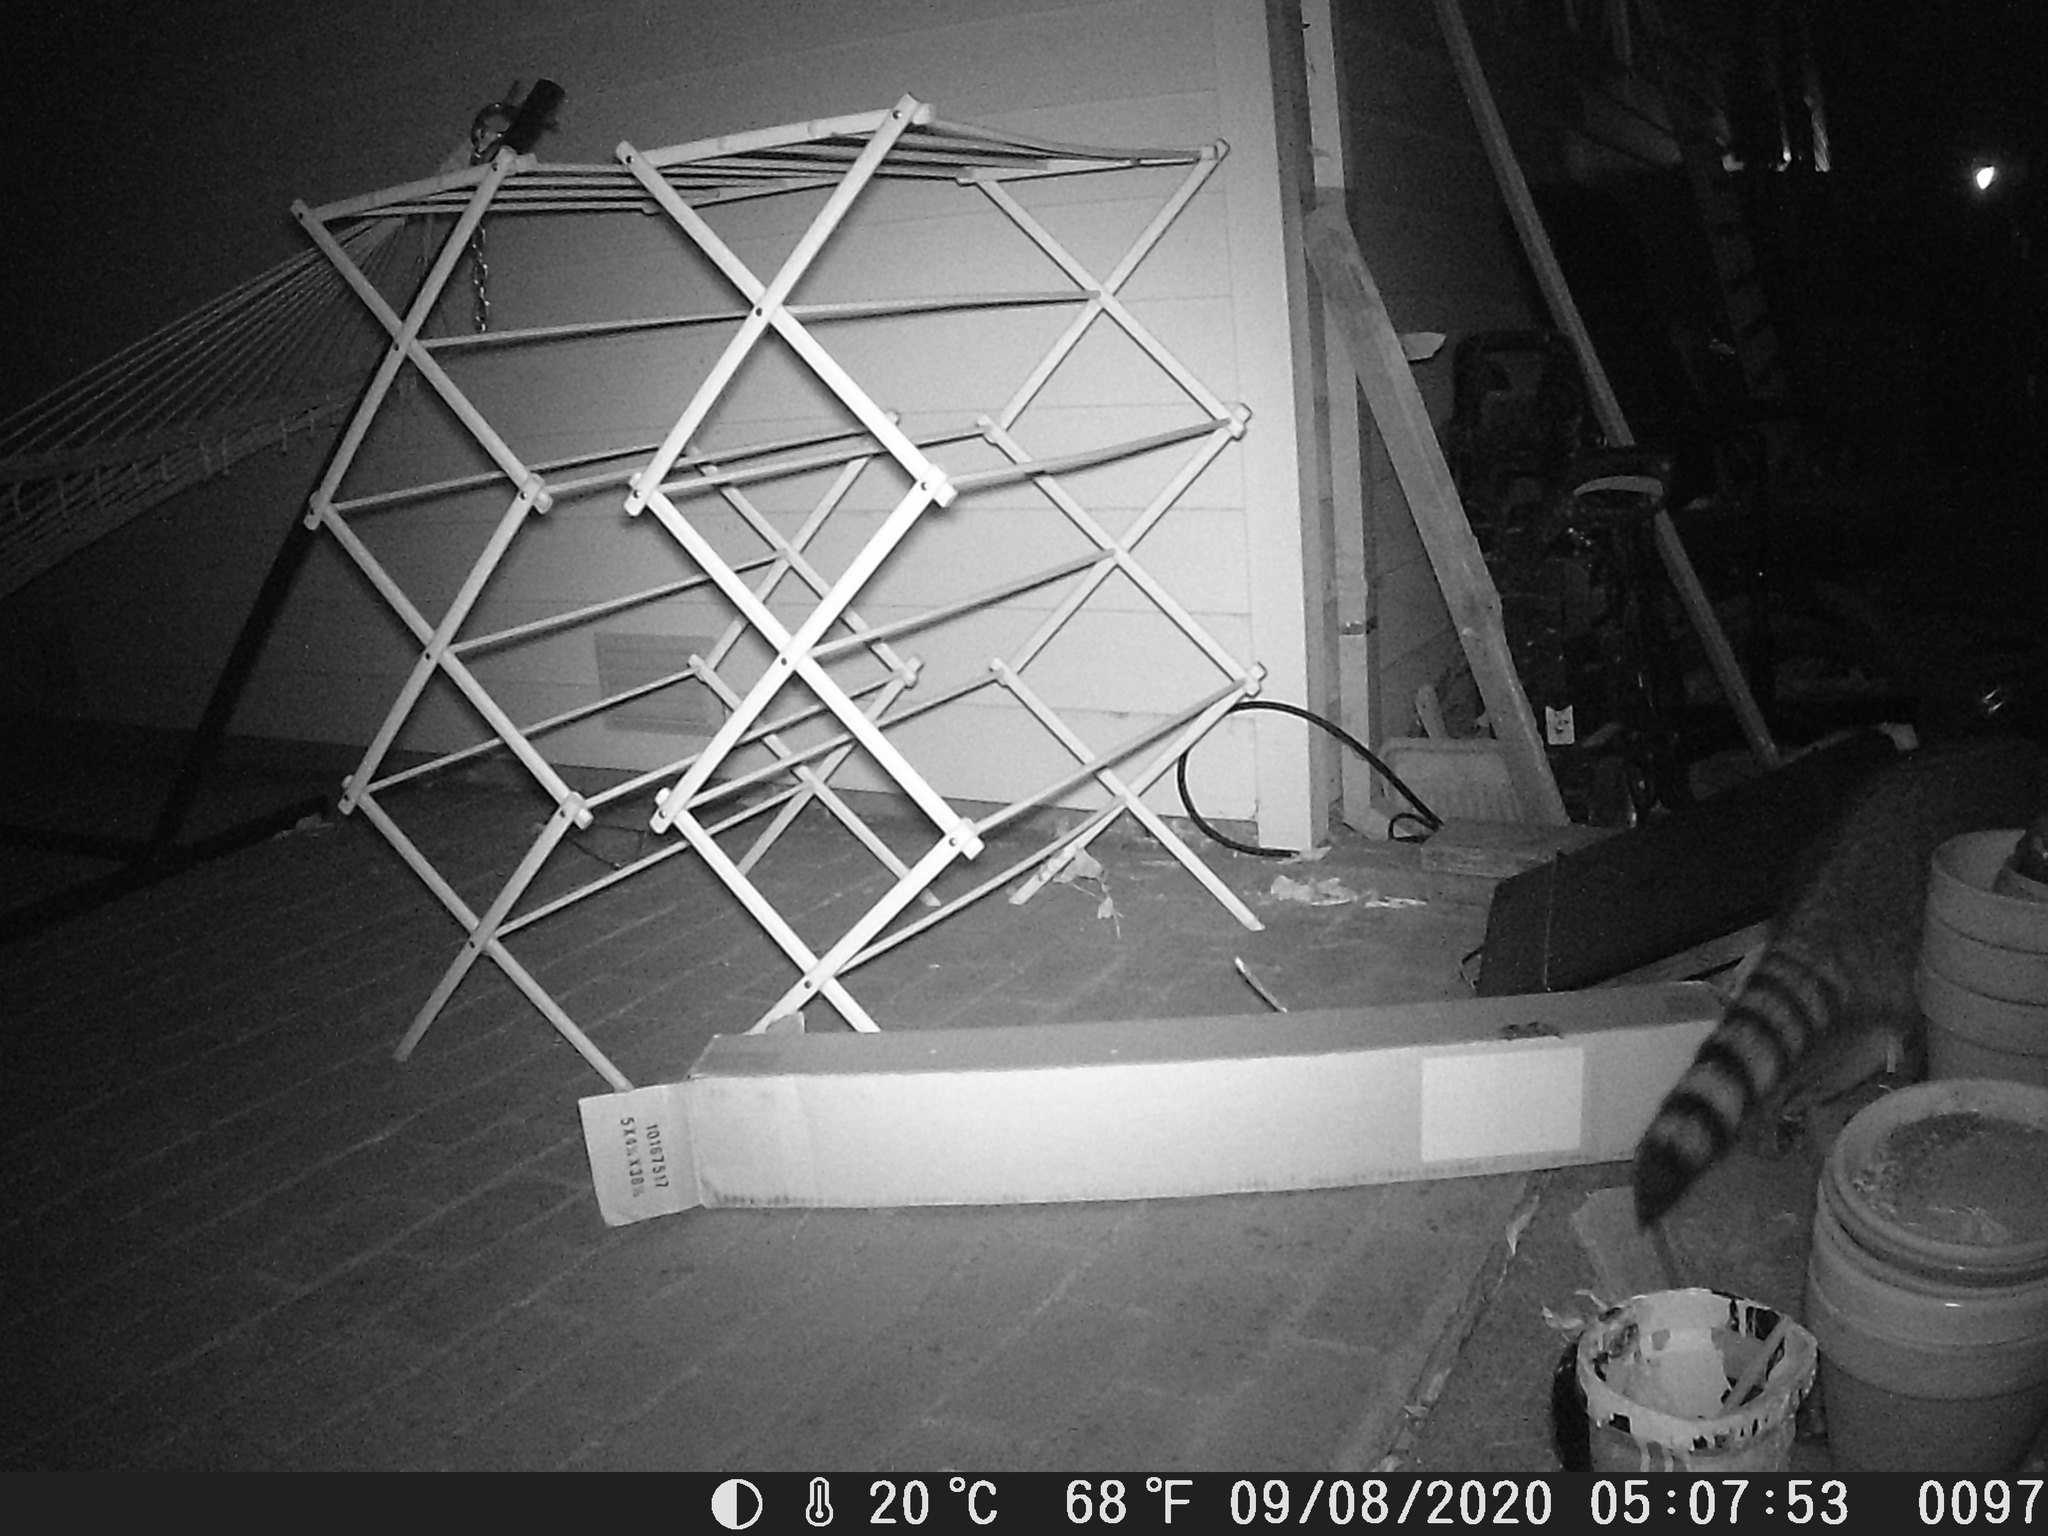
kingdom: Animalia
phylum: Chordata
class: Mammalia
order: Carnivora
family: Procyonidae
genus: Procyon
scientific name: Procyon lotor
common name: Raccoon
